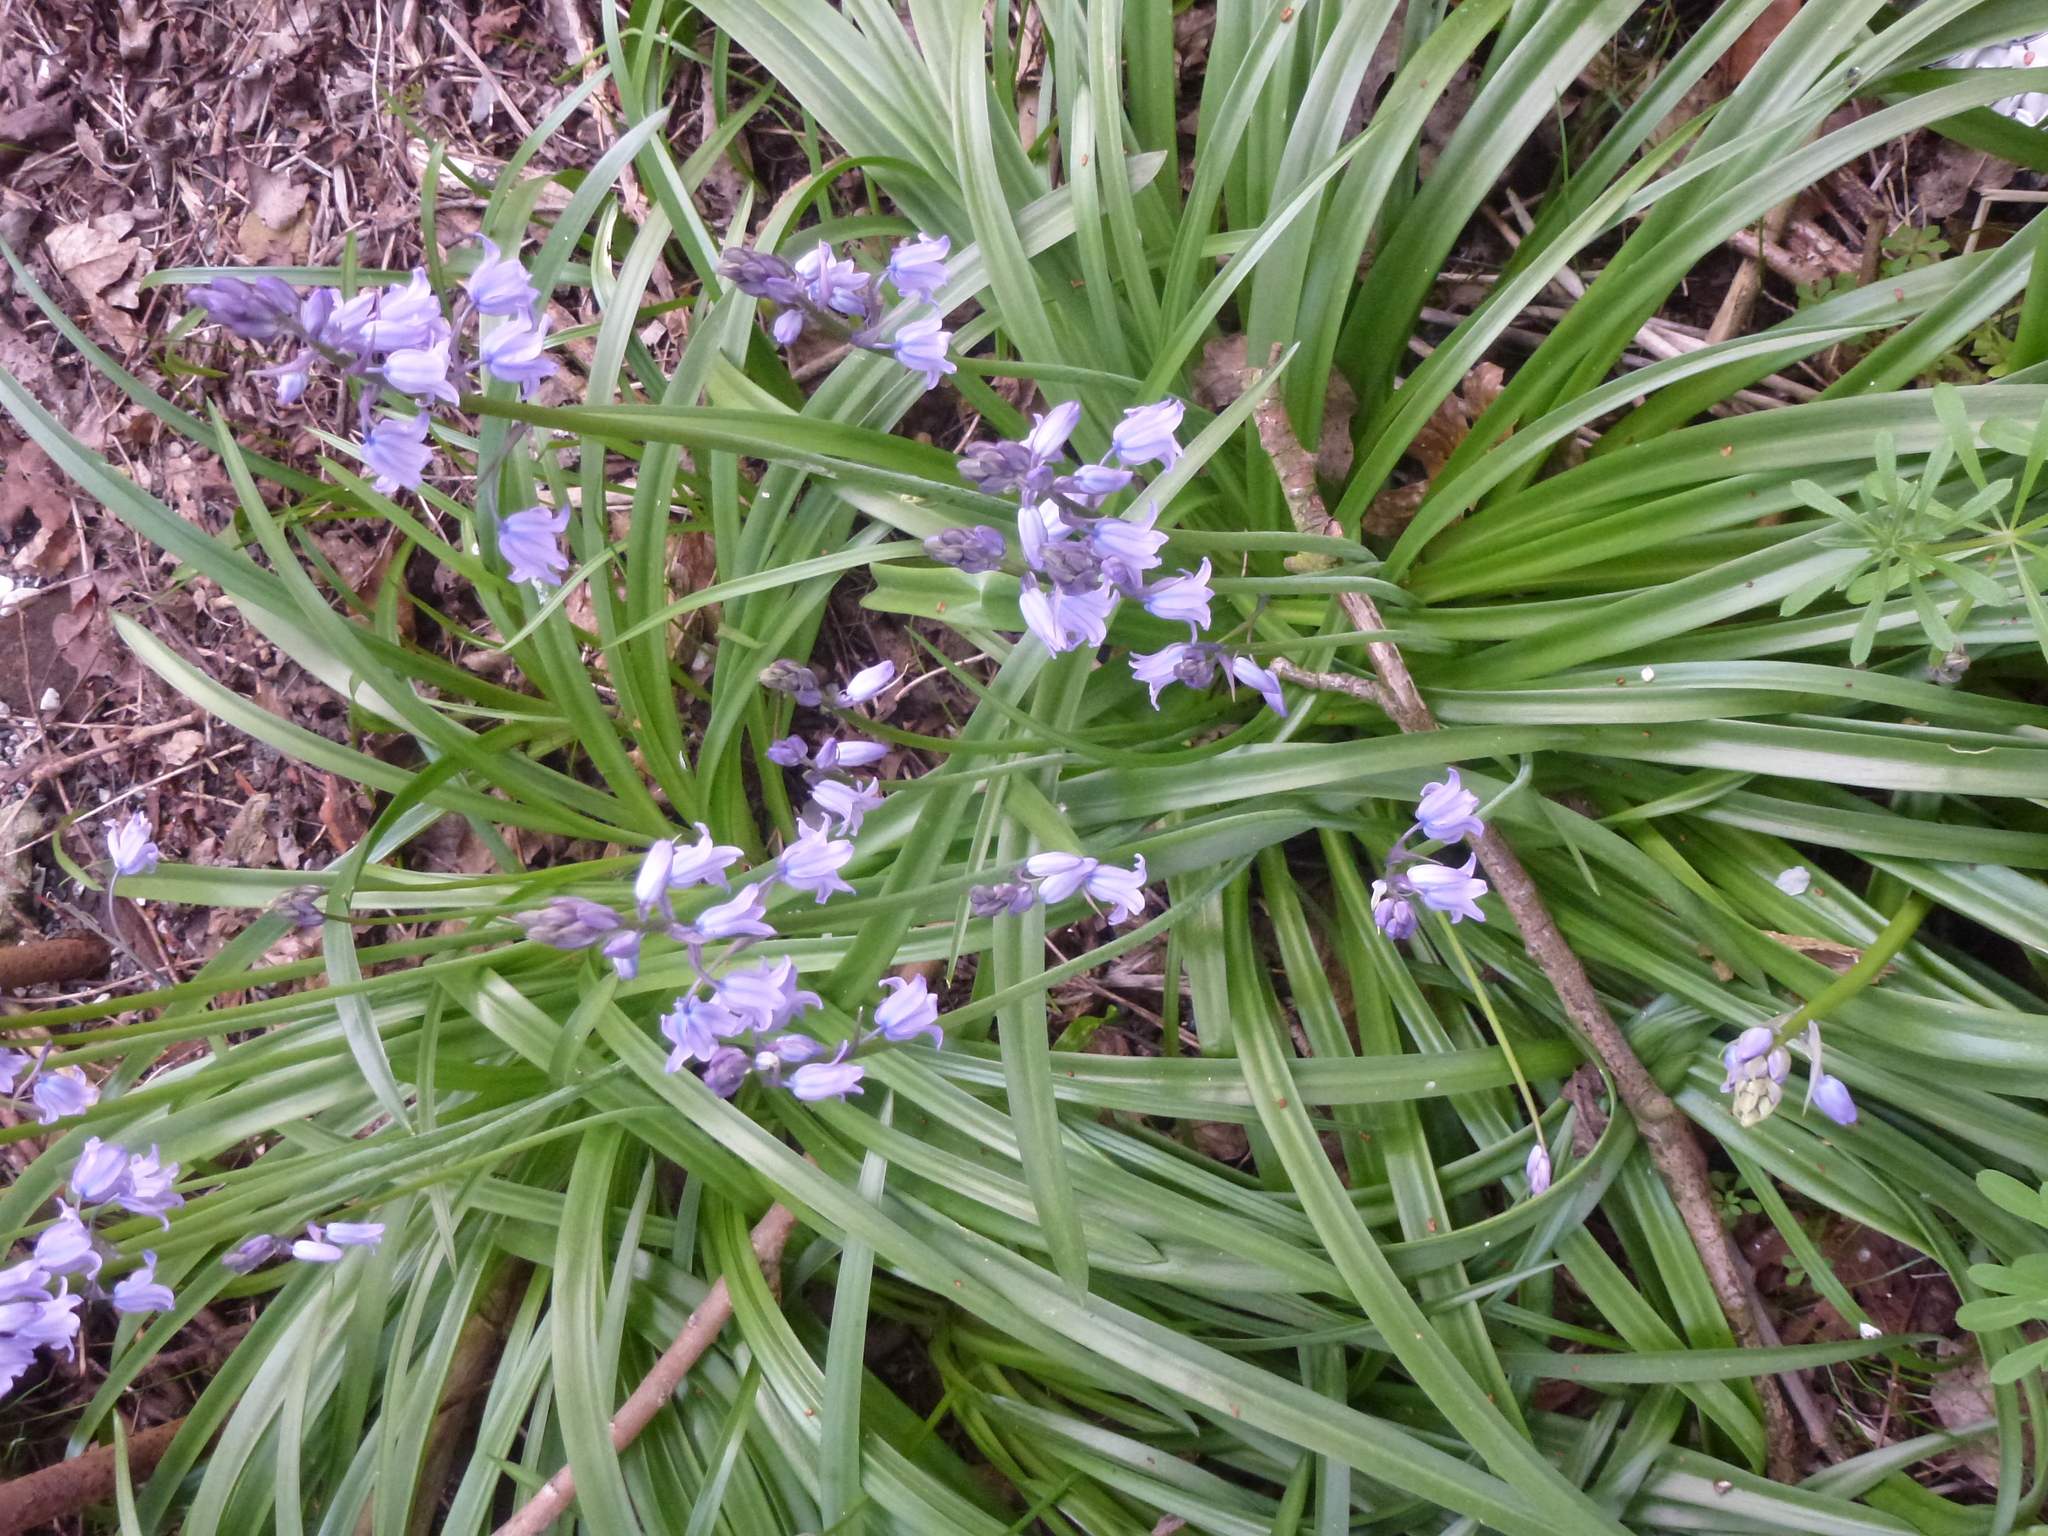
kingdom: Plantae
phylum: Tracheophyta
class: Liliopsida
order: Asparagales
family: Asparagaceae
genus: Hyacinthoides
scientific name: Hyacinthoides massartiana
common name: Hyacinthoides
